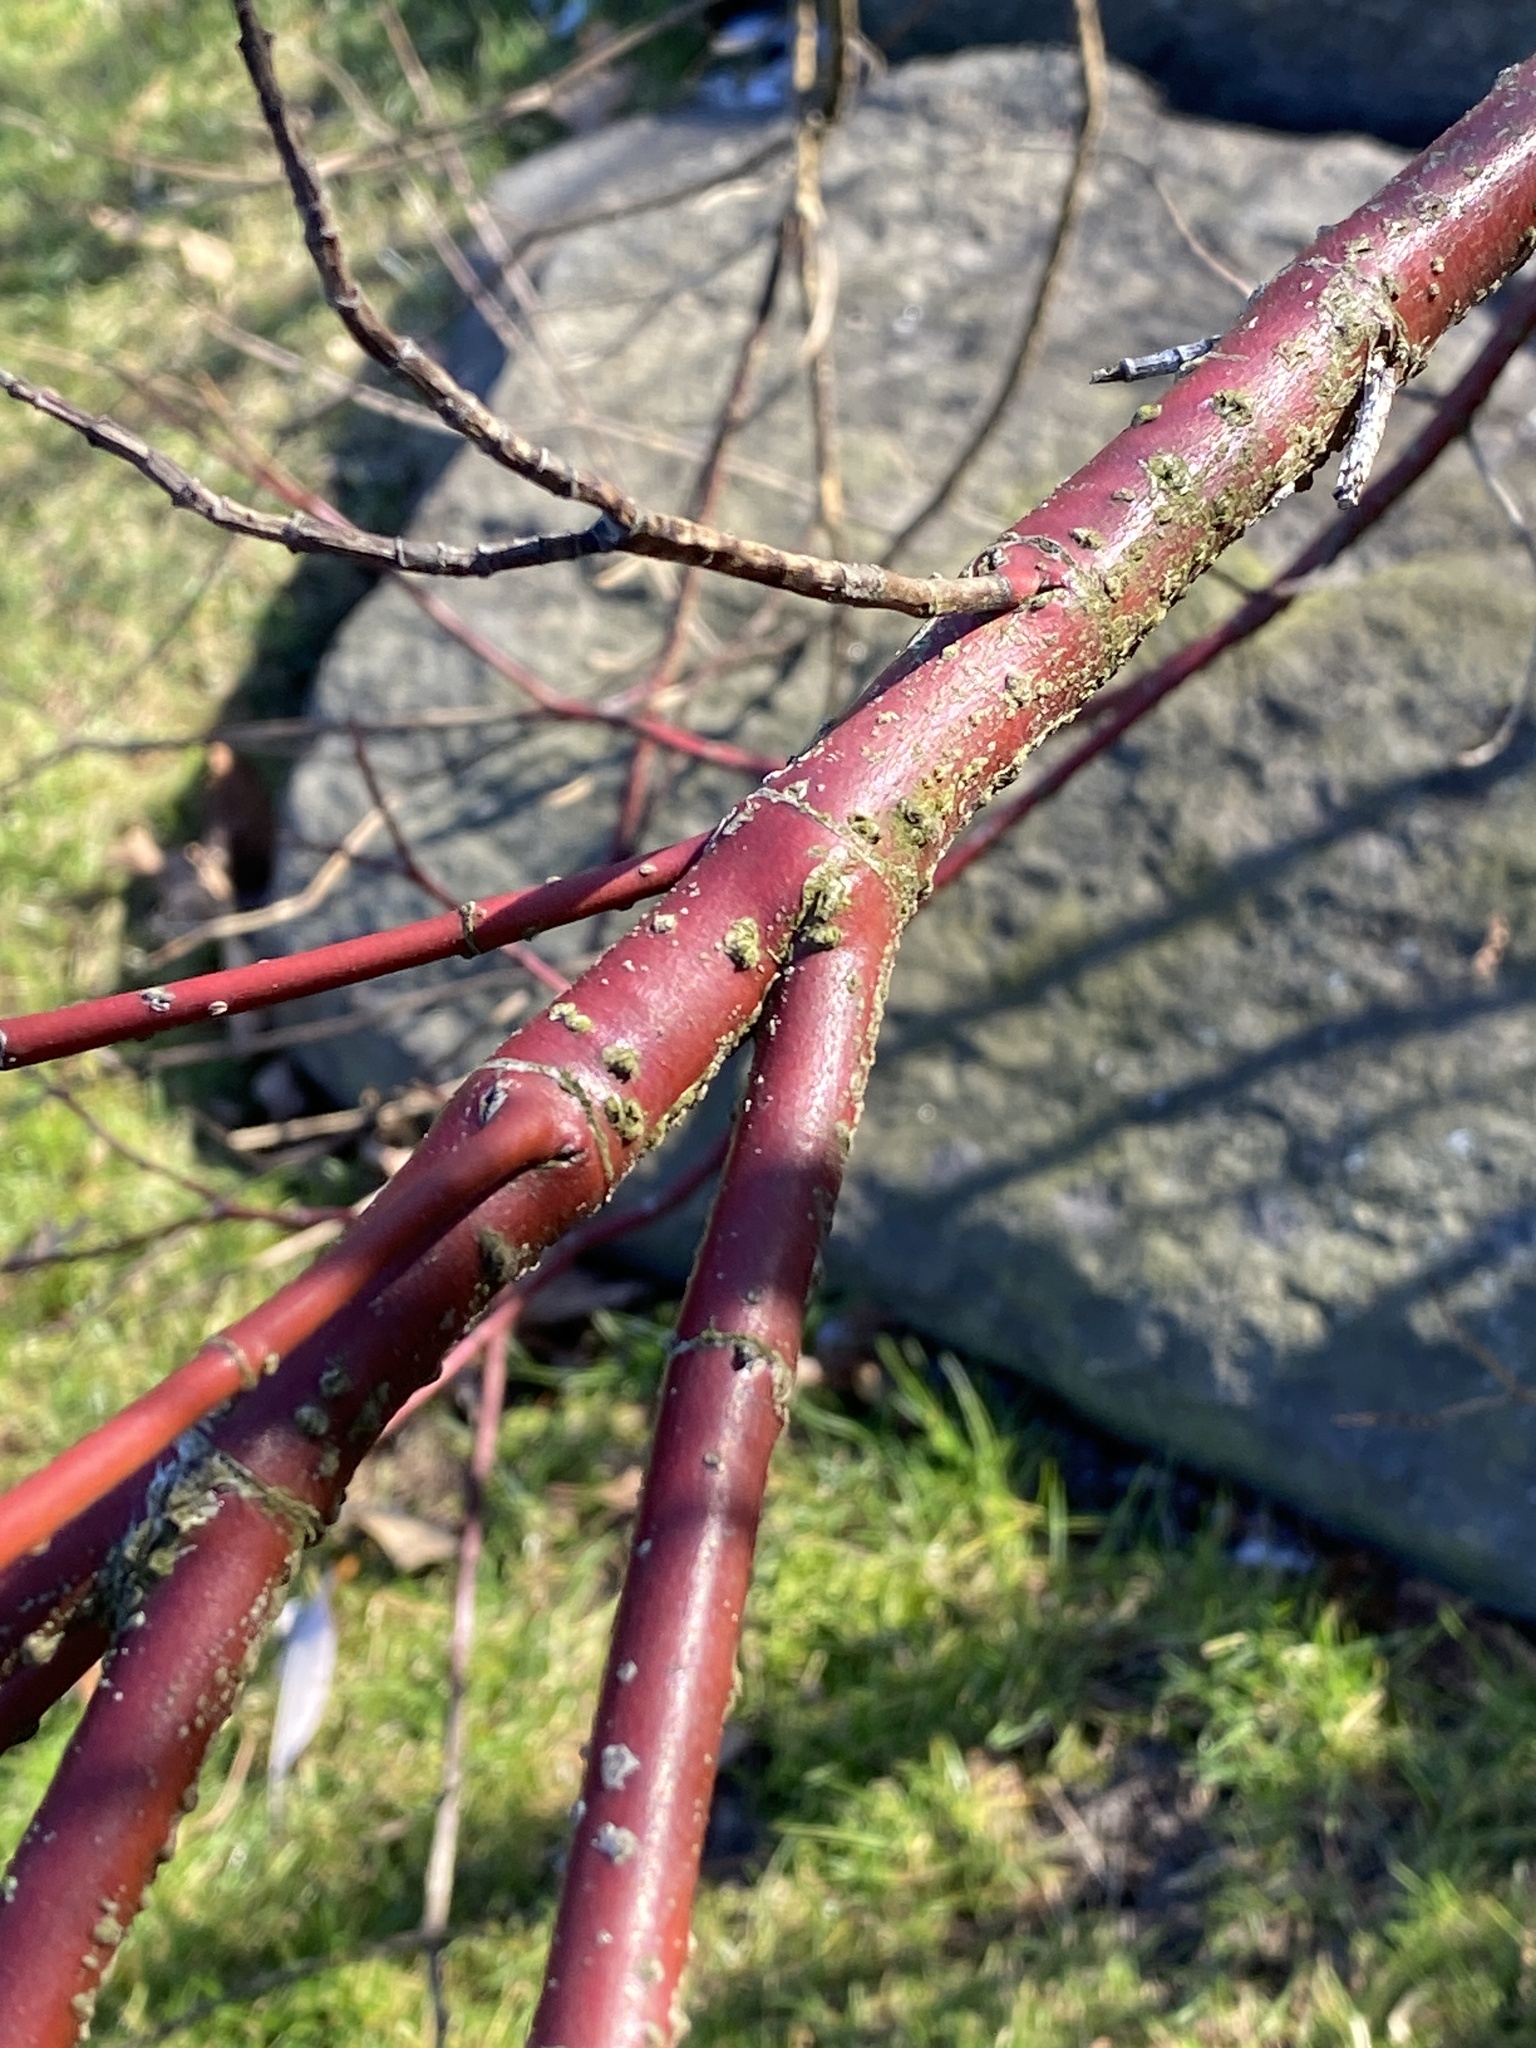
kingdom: Plantae
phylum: Tracheophyta
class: Magnoliopsida
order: Cornales
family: Cornaceae
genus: Cornus
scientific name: Cornus amomum
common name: Silky dogwood
